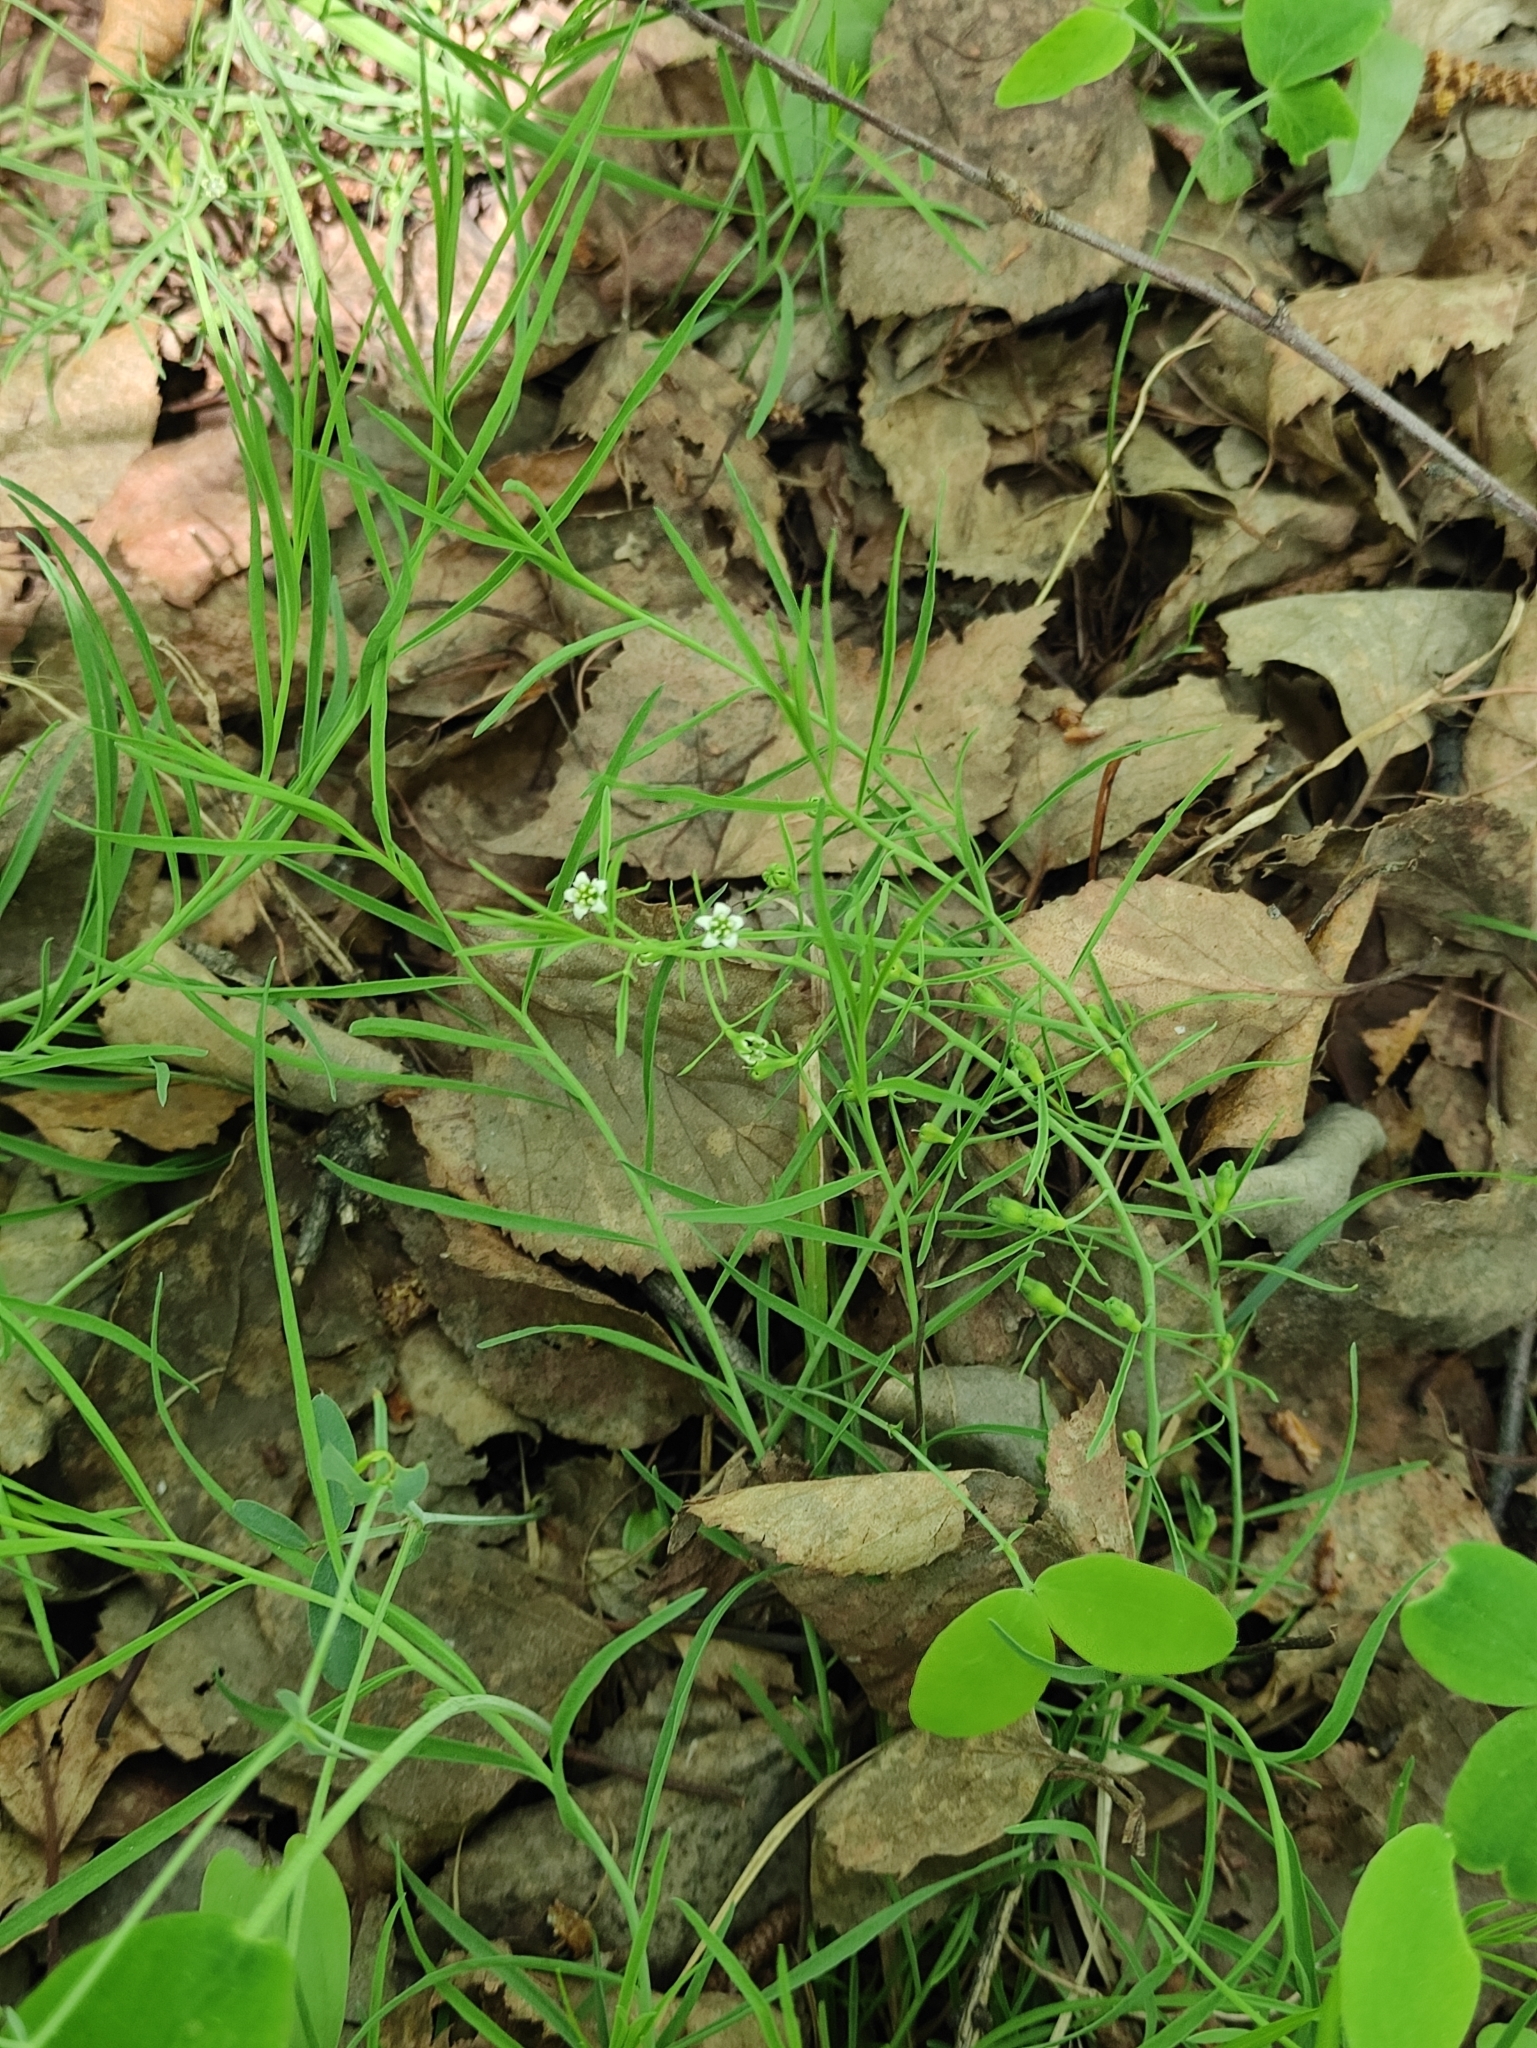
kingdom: Plantae
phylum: Tracheophyta
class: Magnoliopsida
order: Santalales
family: Thesiaceae
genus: Thesium
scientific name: Thesium repens
